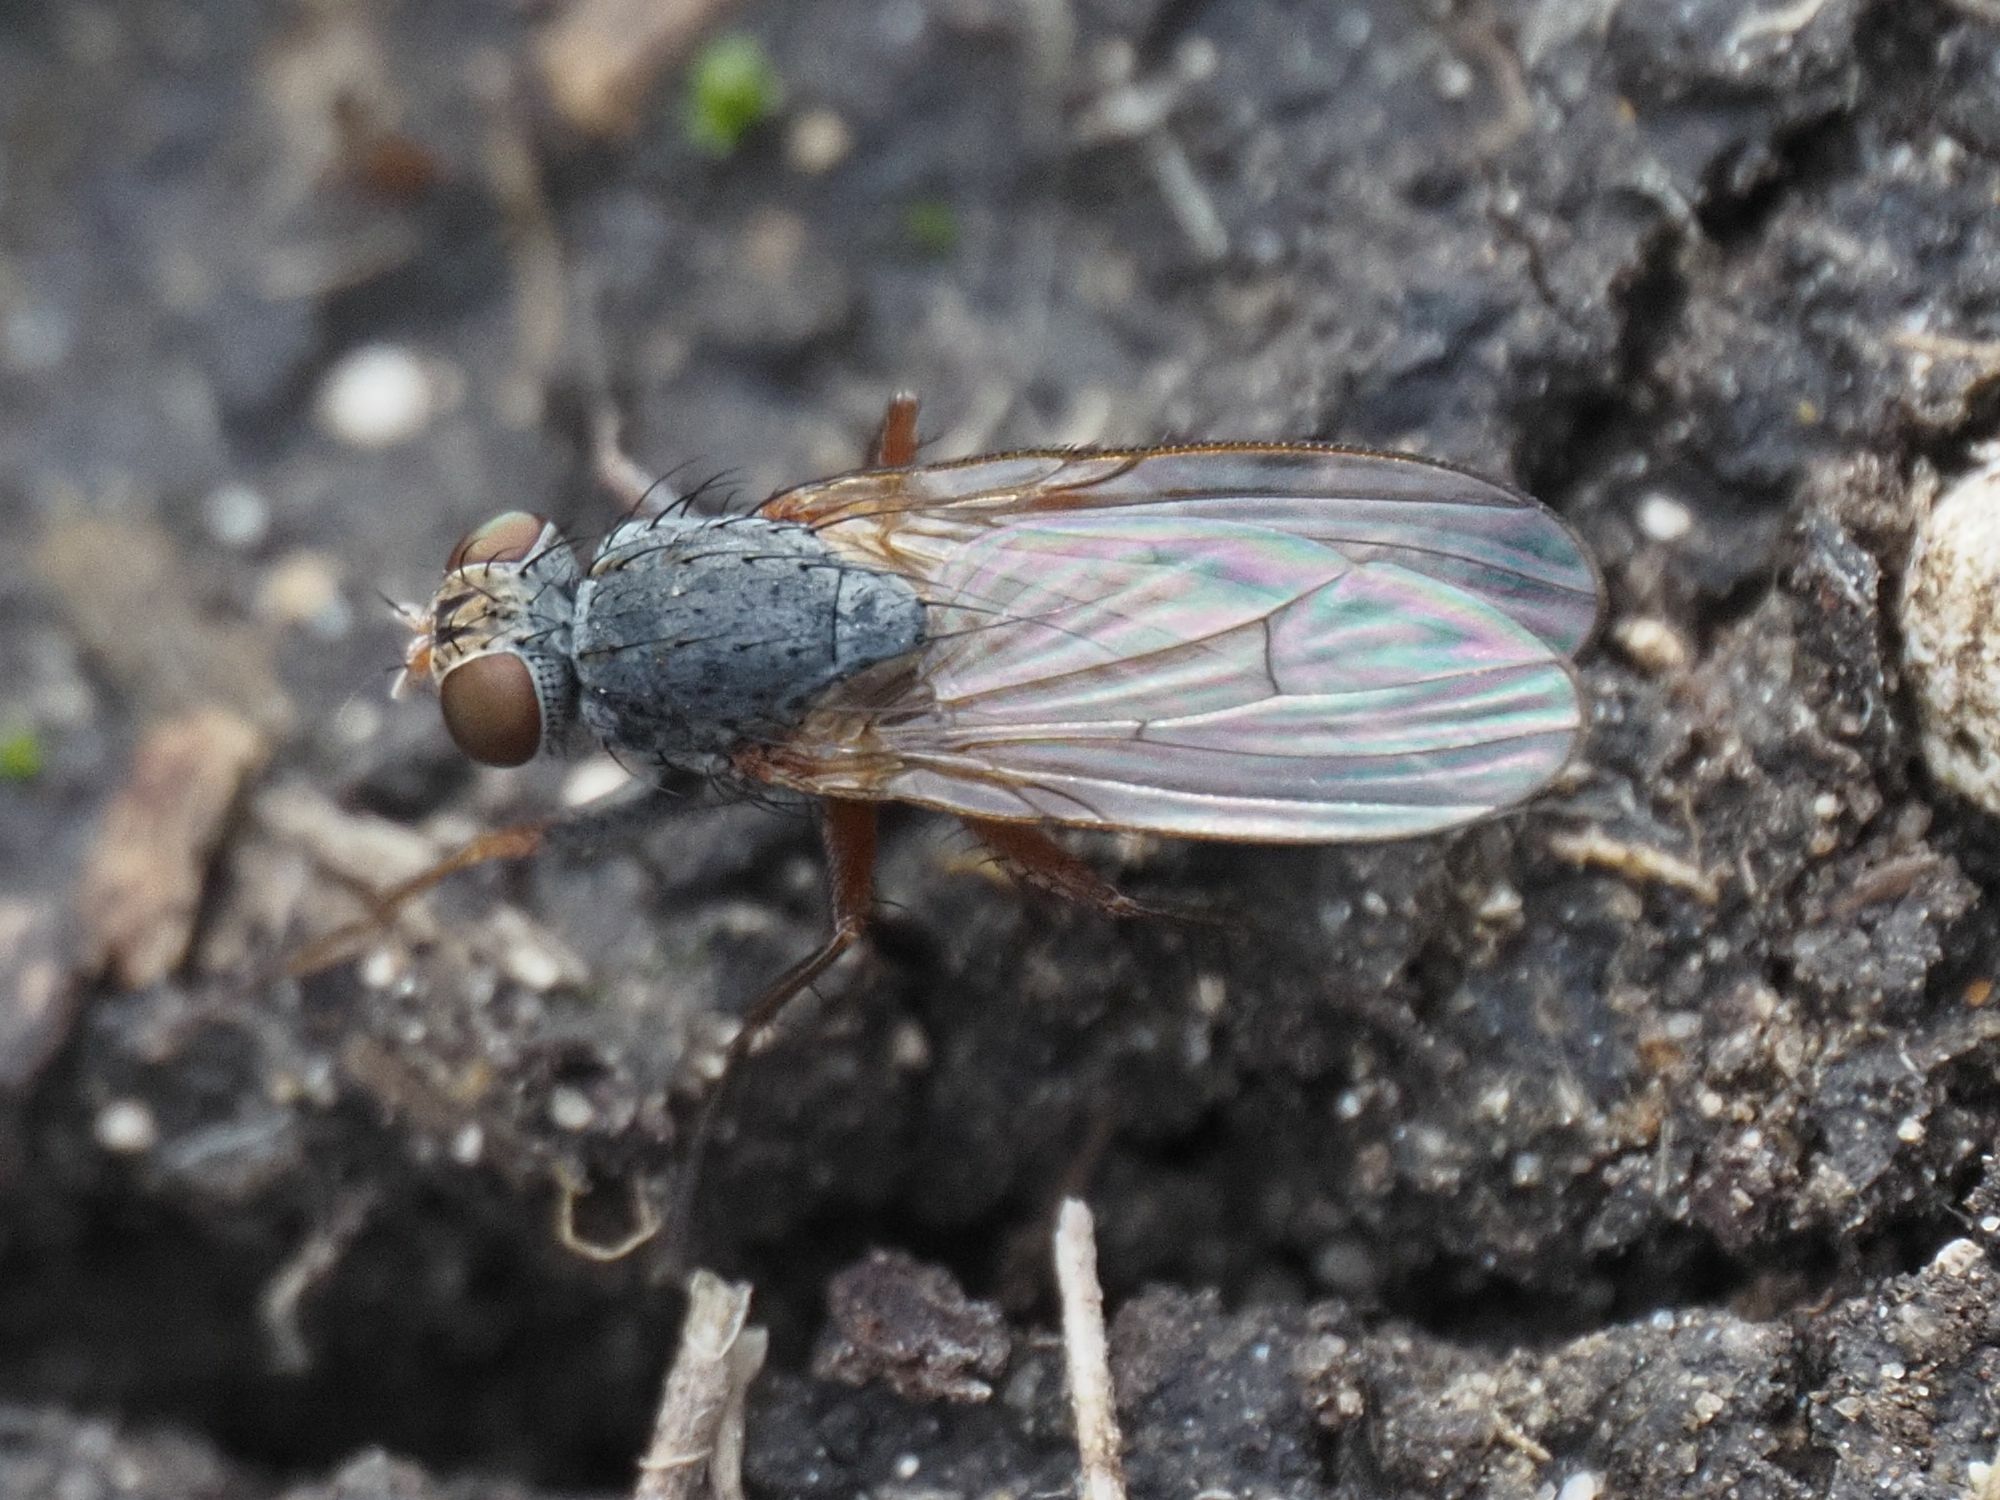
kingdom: Animalia
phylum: Arthropoda
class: Insecta
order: Diptera
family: Muscidae
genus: Lispocephala
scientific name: Lispocephala brachialis
